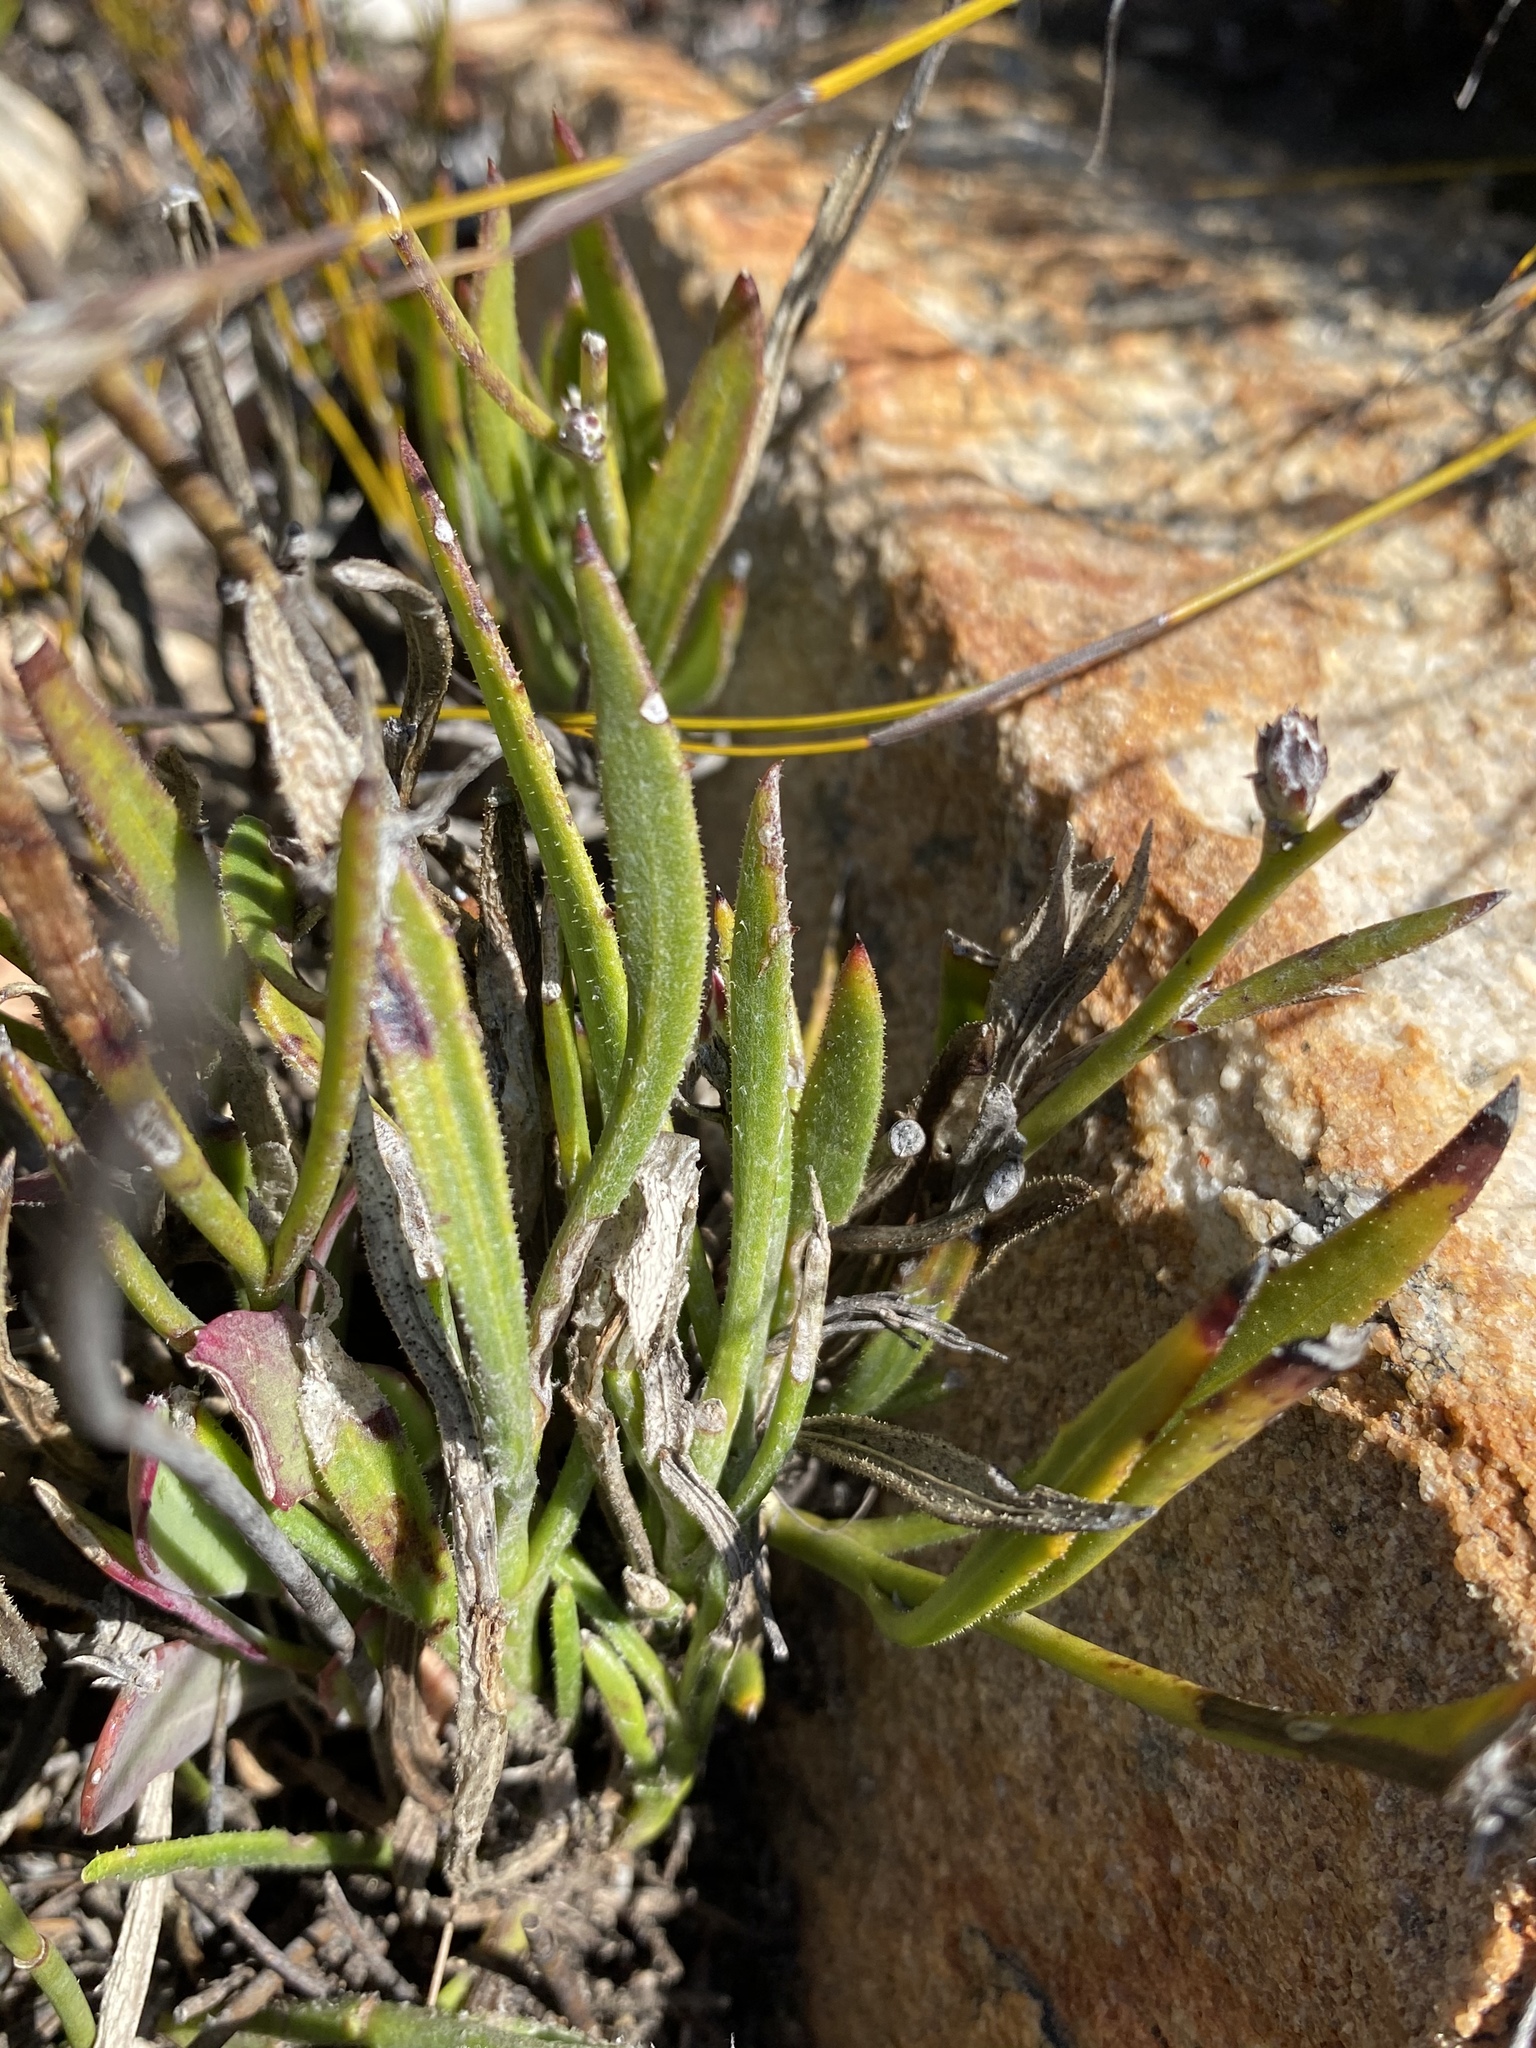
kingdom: Plantae
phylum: Tracheophyta
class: Magnoliopsida
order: Asterales
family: Asteraceae
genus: Osteospermum
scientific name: Osteospermum asperulum
